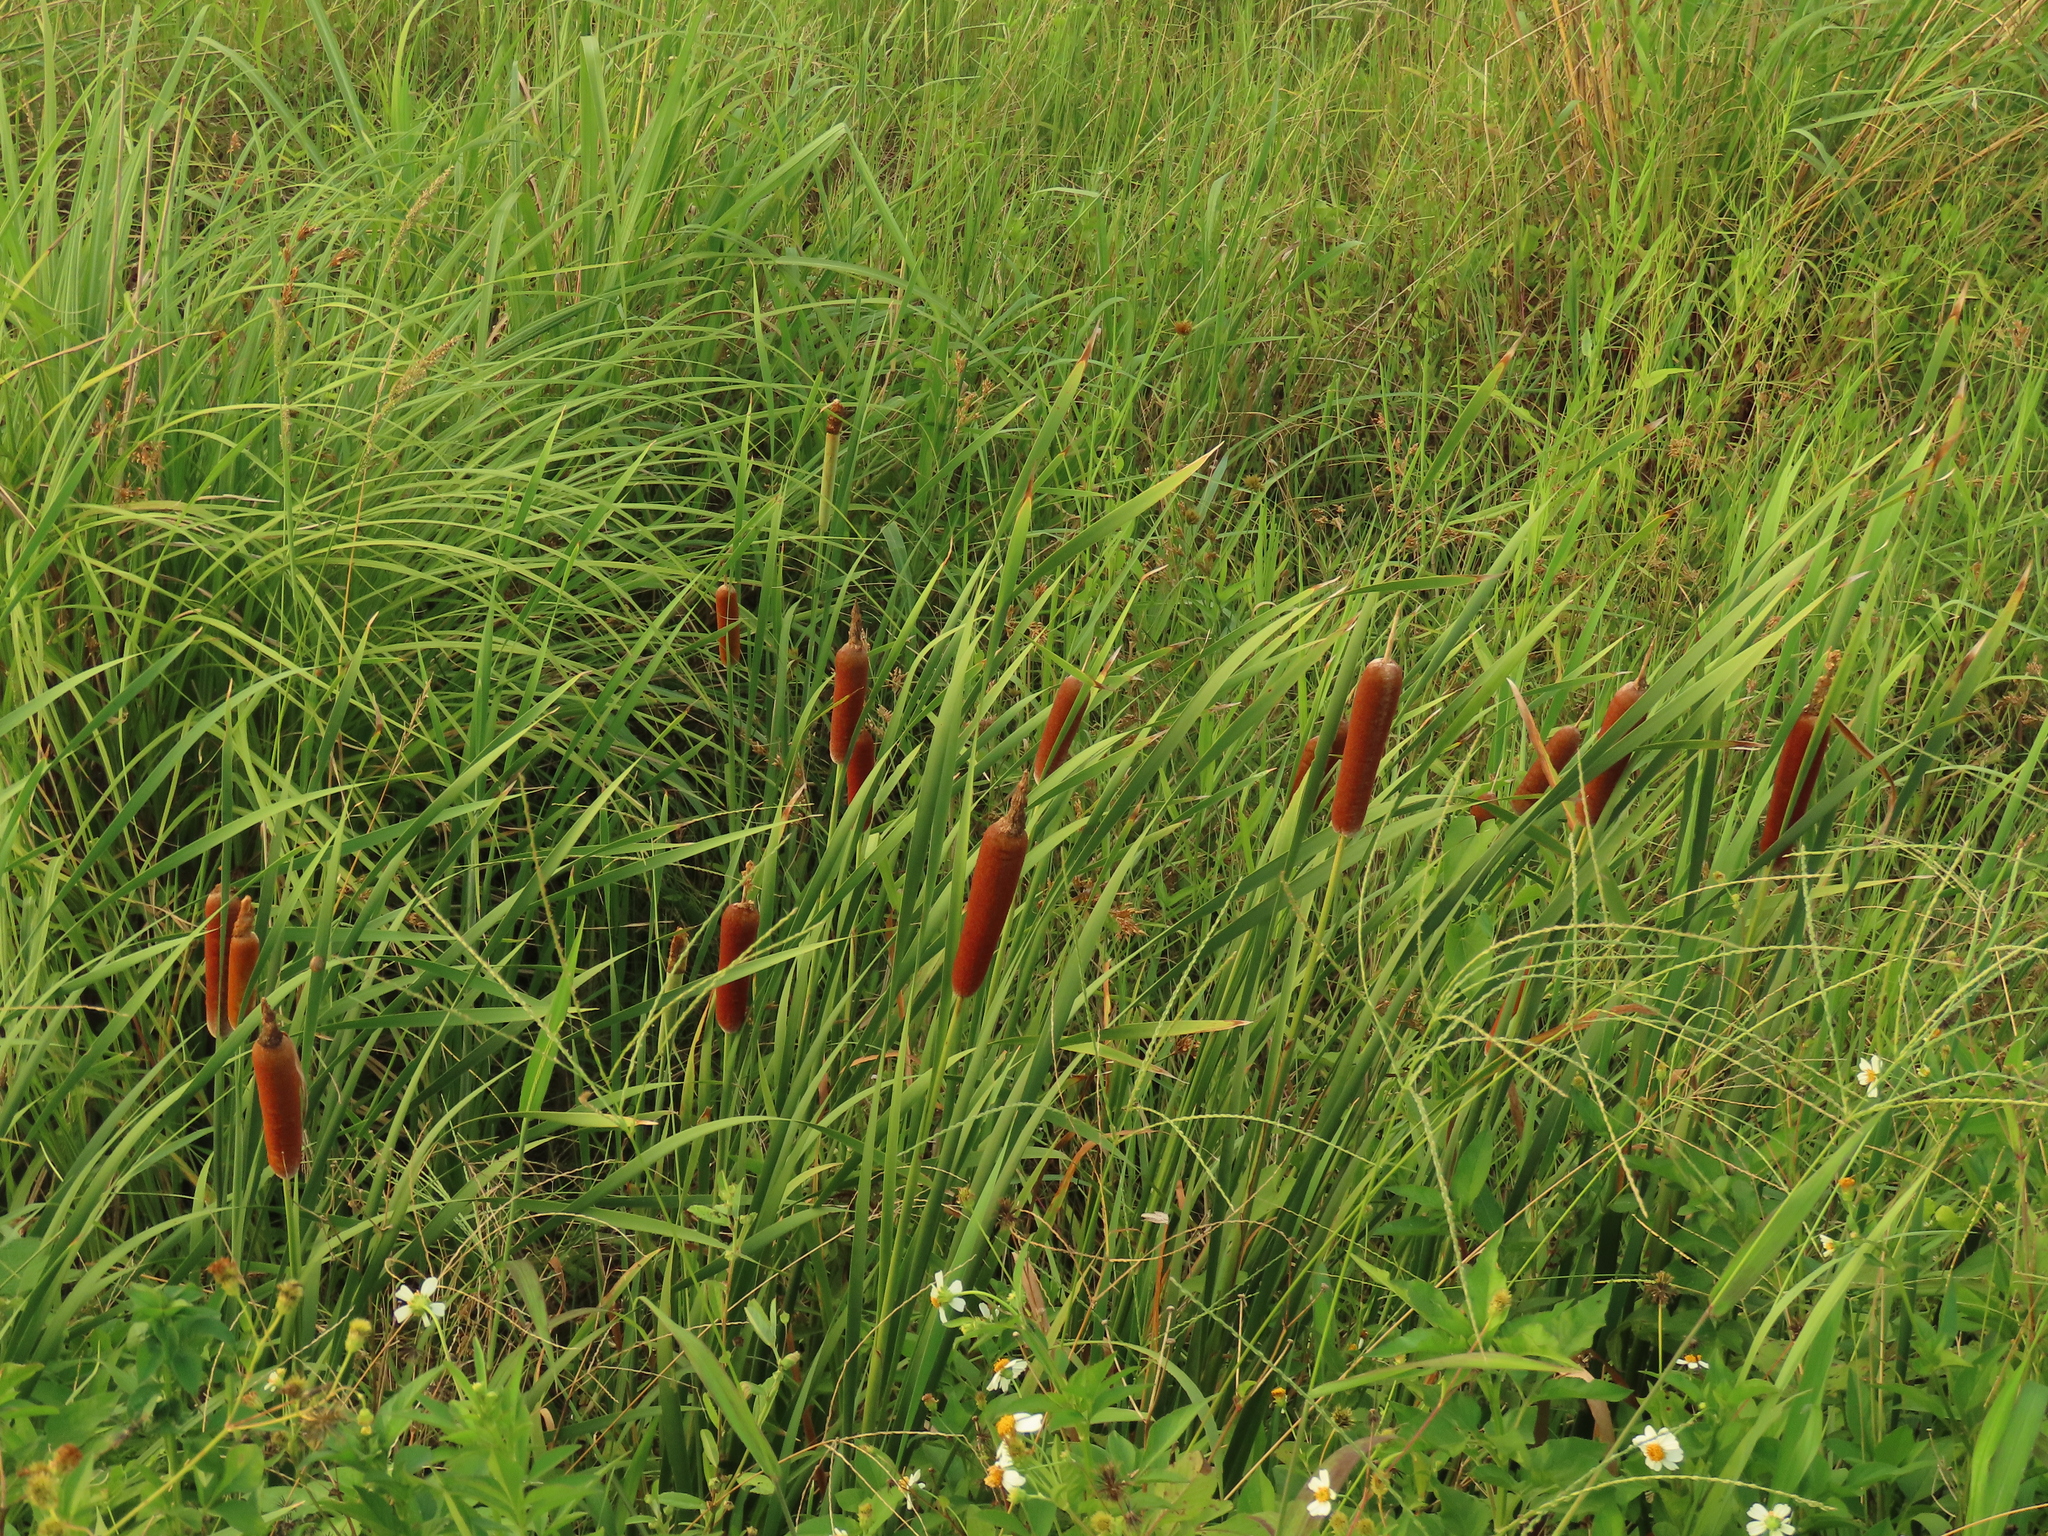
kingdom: Plantae
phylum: Tracheophyta
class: Liliopsida
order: Poales
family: Typhaceae
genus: Typha
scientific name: Typha orientalis
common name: Bullrush
